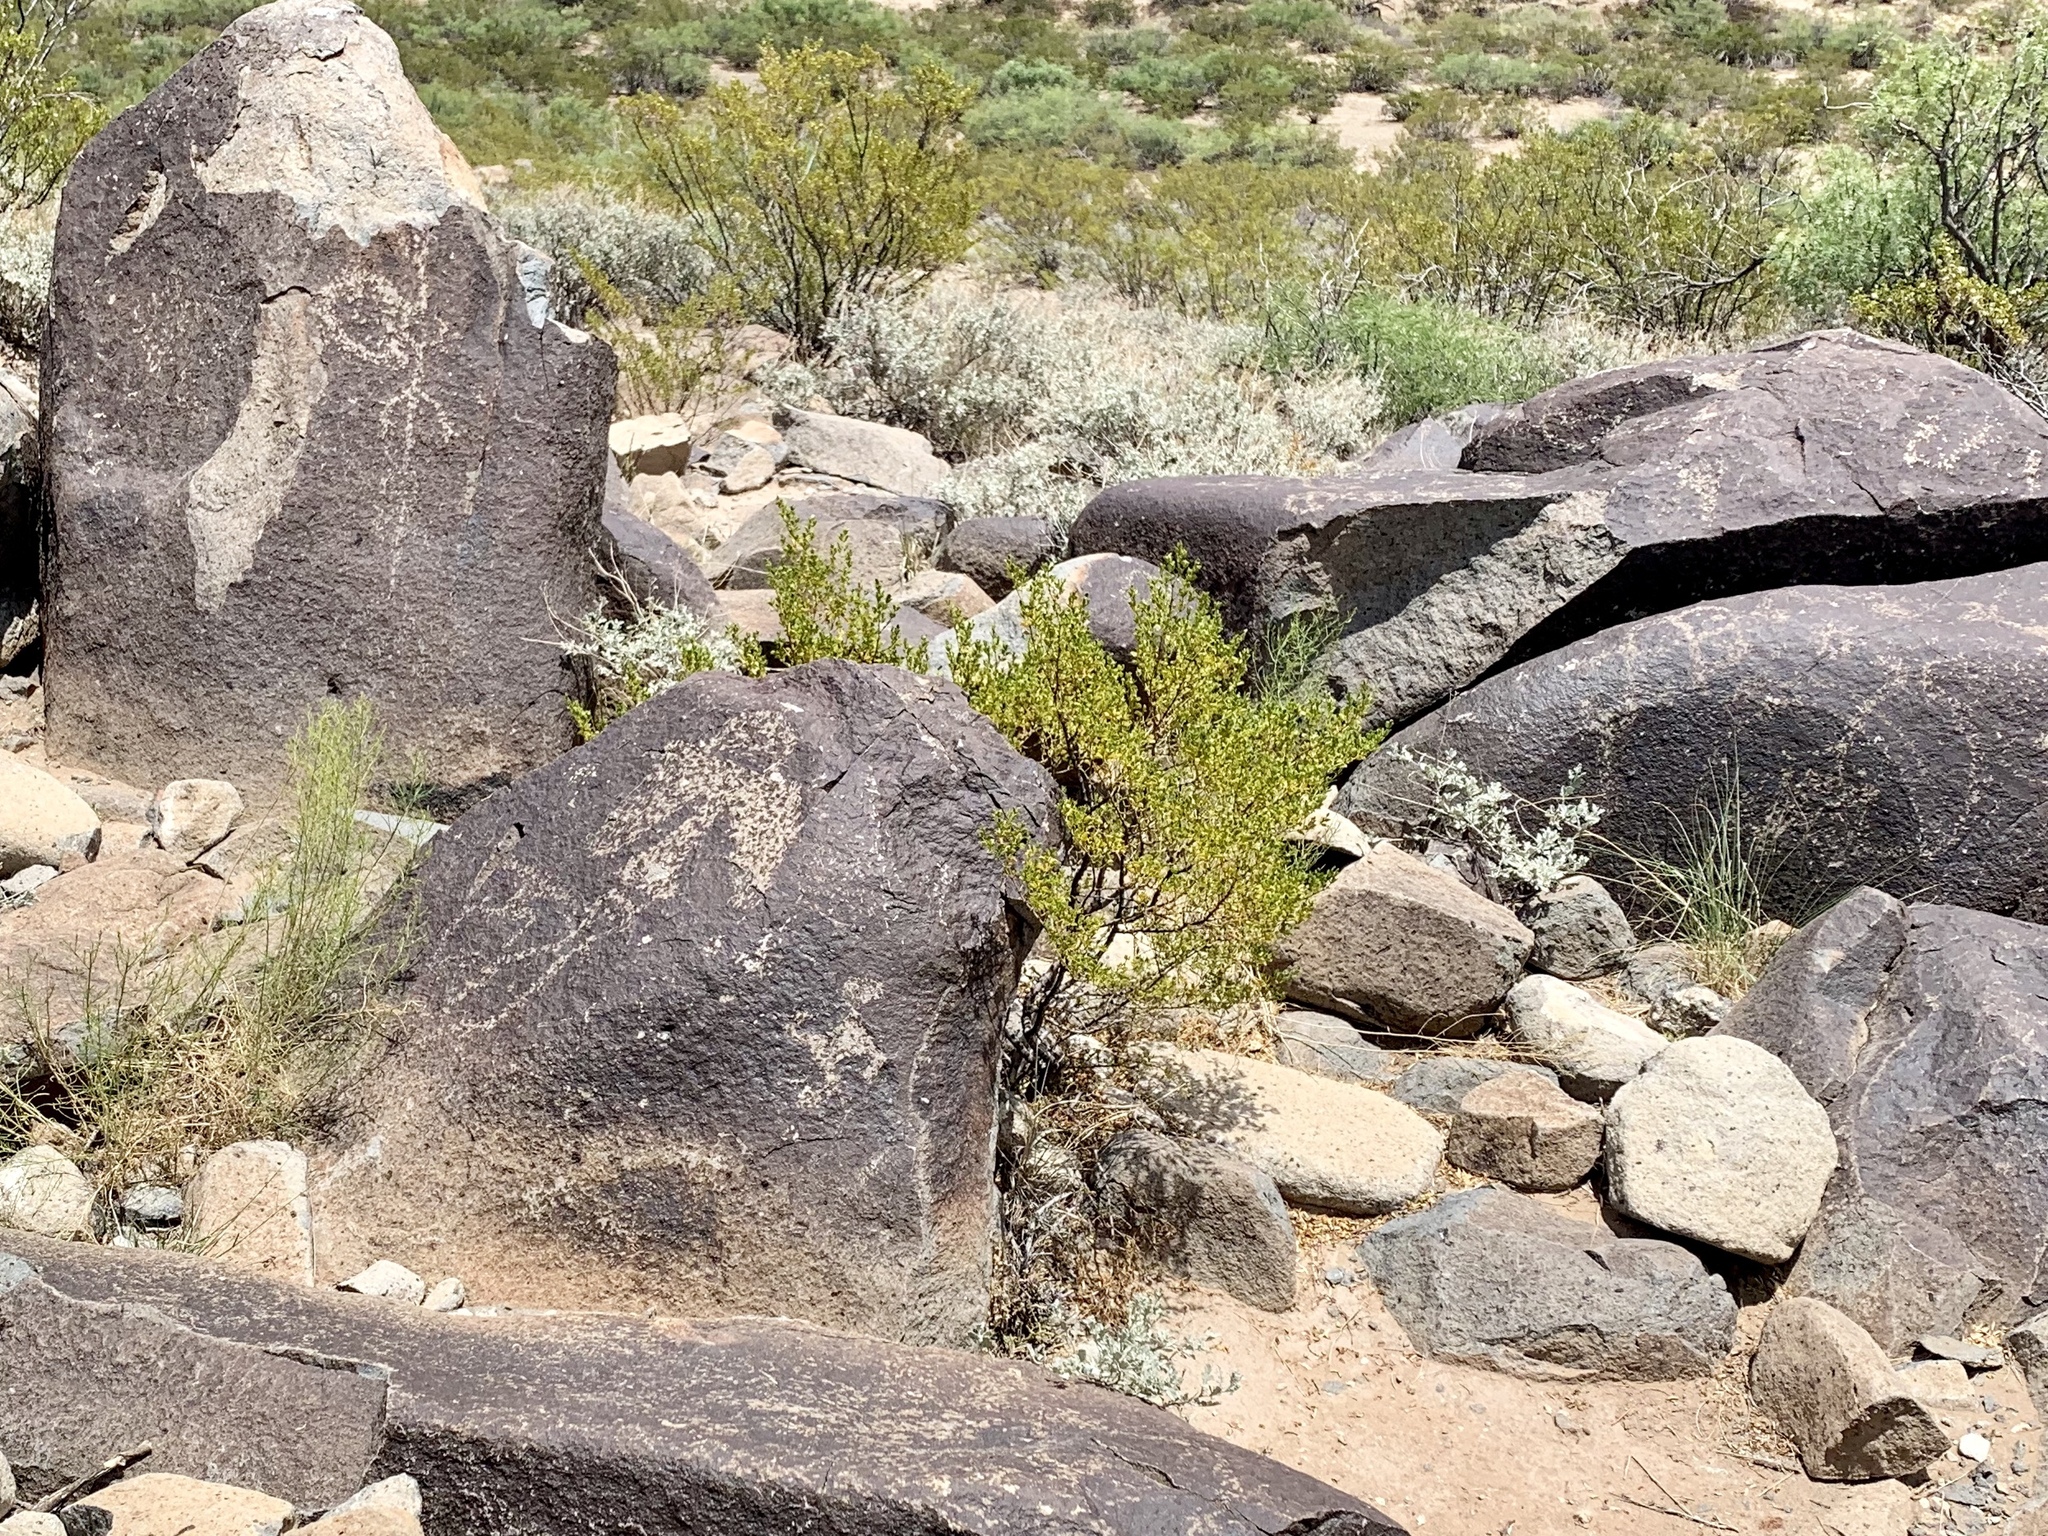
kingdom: Plantae
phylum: Tracheophyta
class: Magnoliopsida
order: Zygophyllales
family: Zygophyllaceae
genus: Larrea
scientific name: Larrea tridentata
